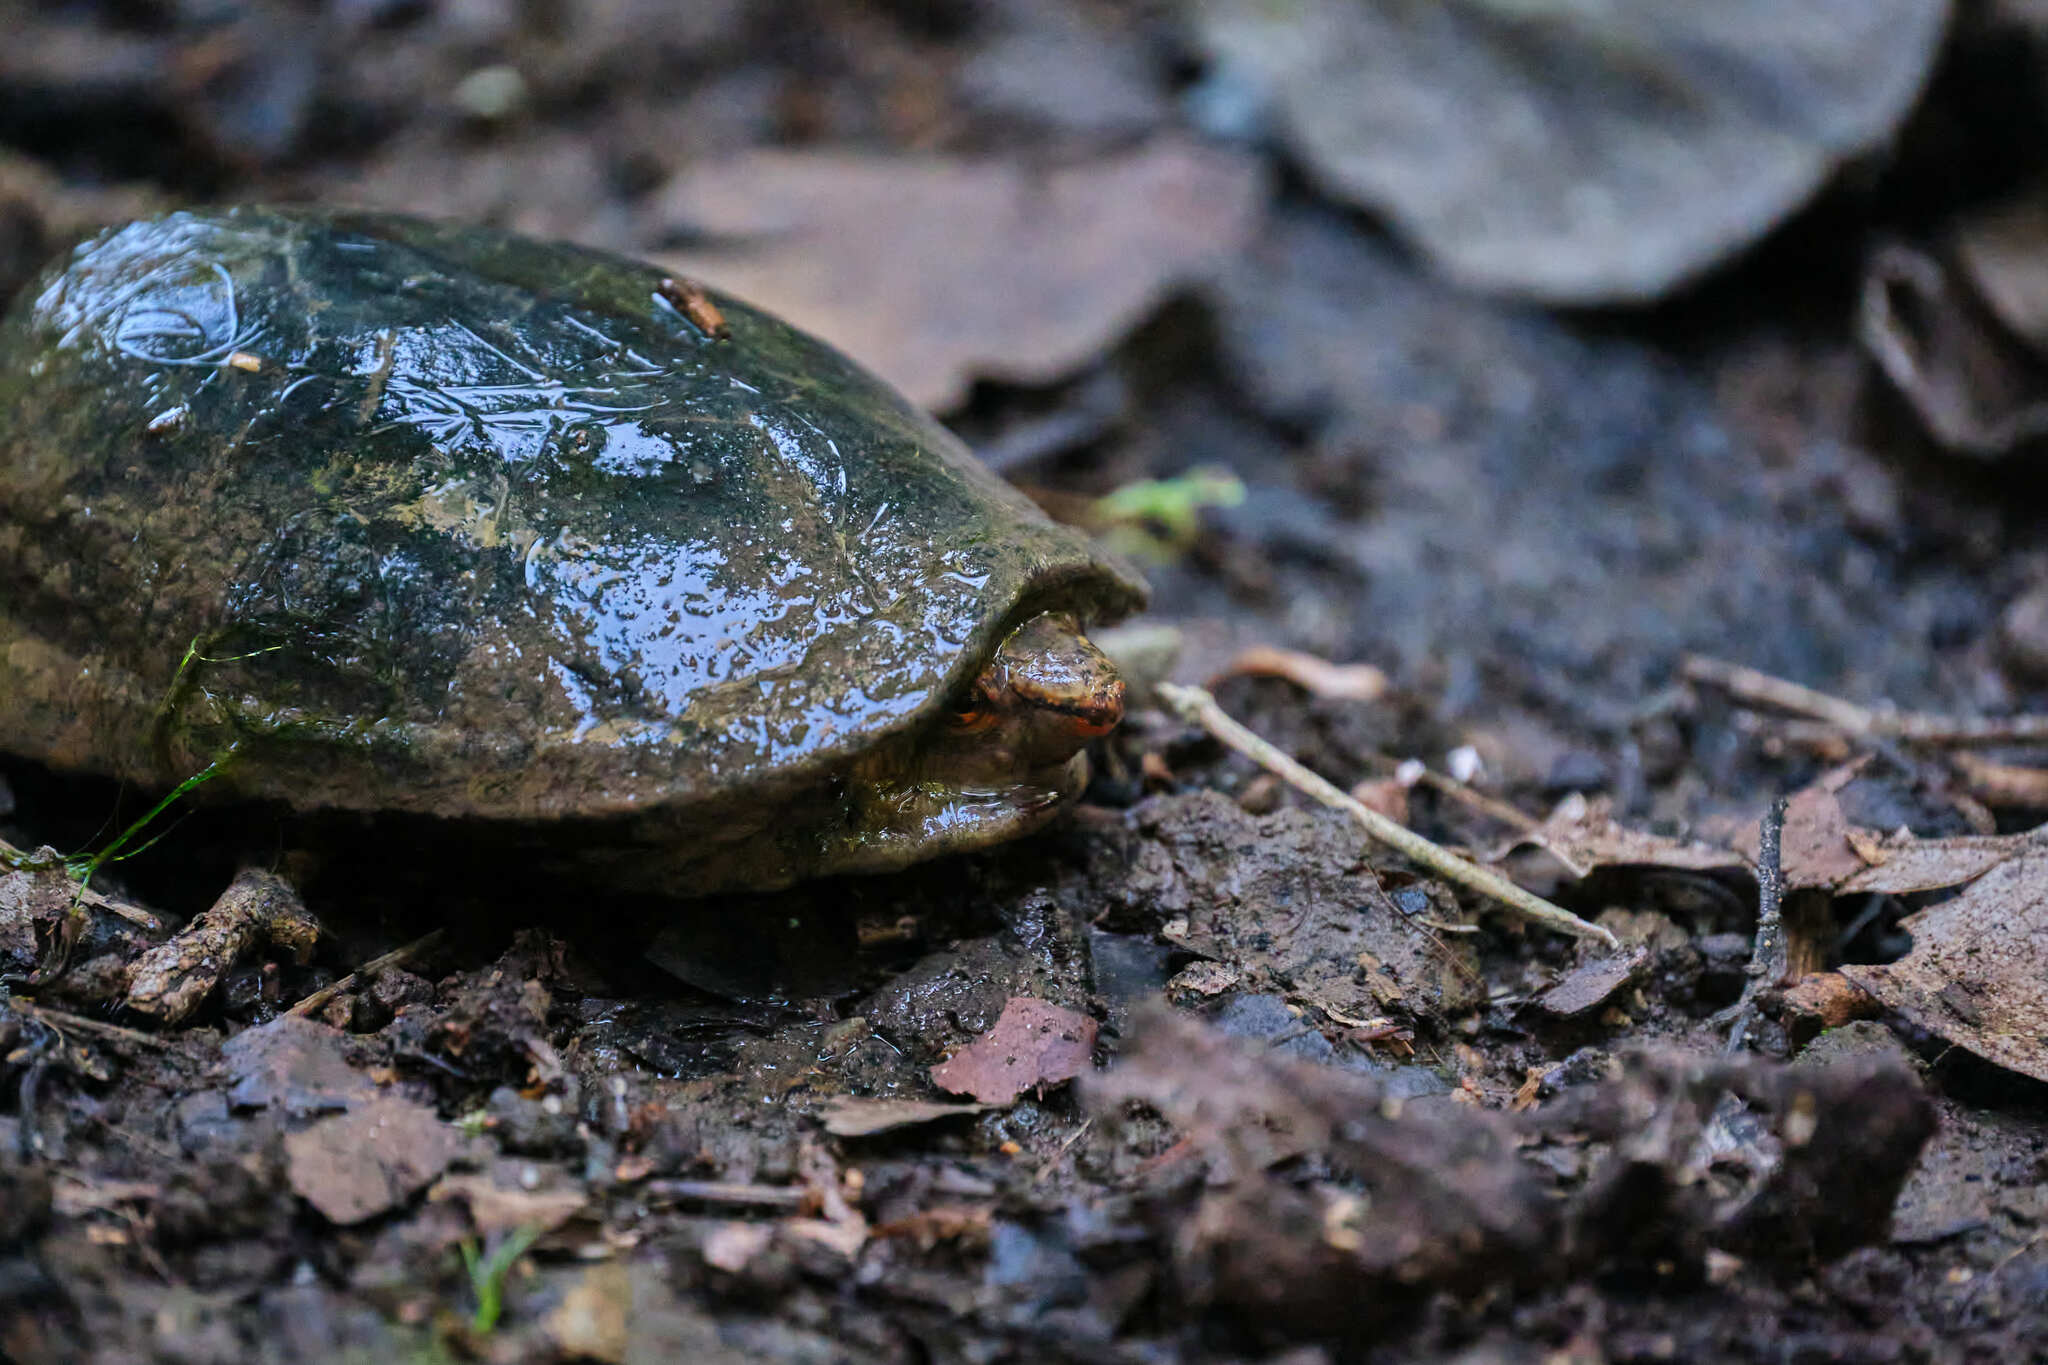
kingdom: Animalia
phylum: Chordata
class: Testudines
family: Kinosternidae
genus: Kinosternon
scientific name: Kinosternon acutum
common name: Tabasco mud turtle
